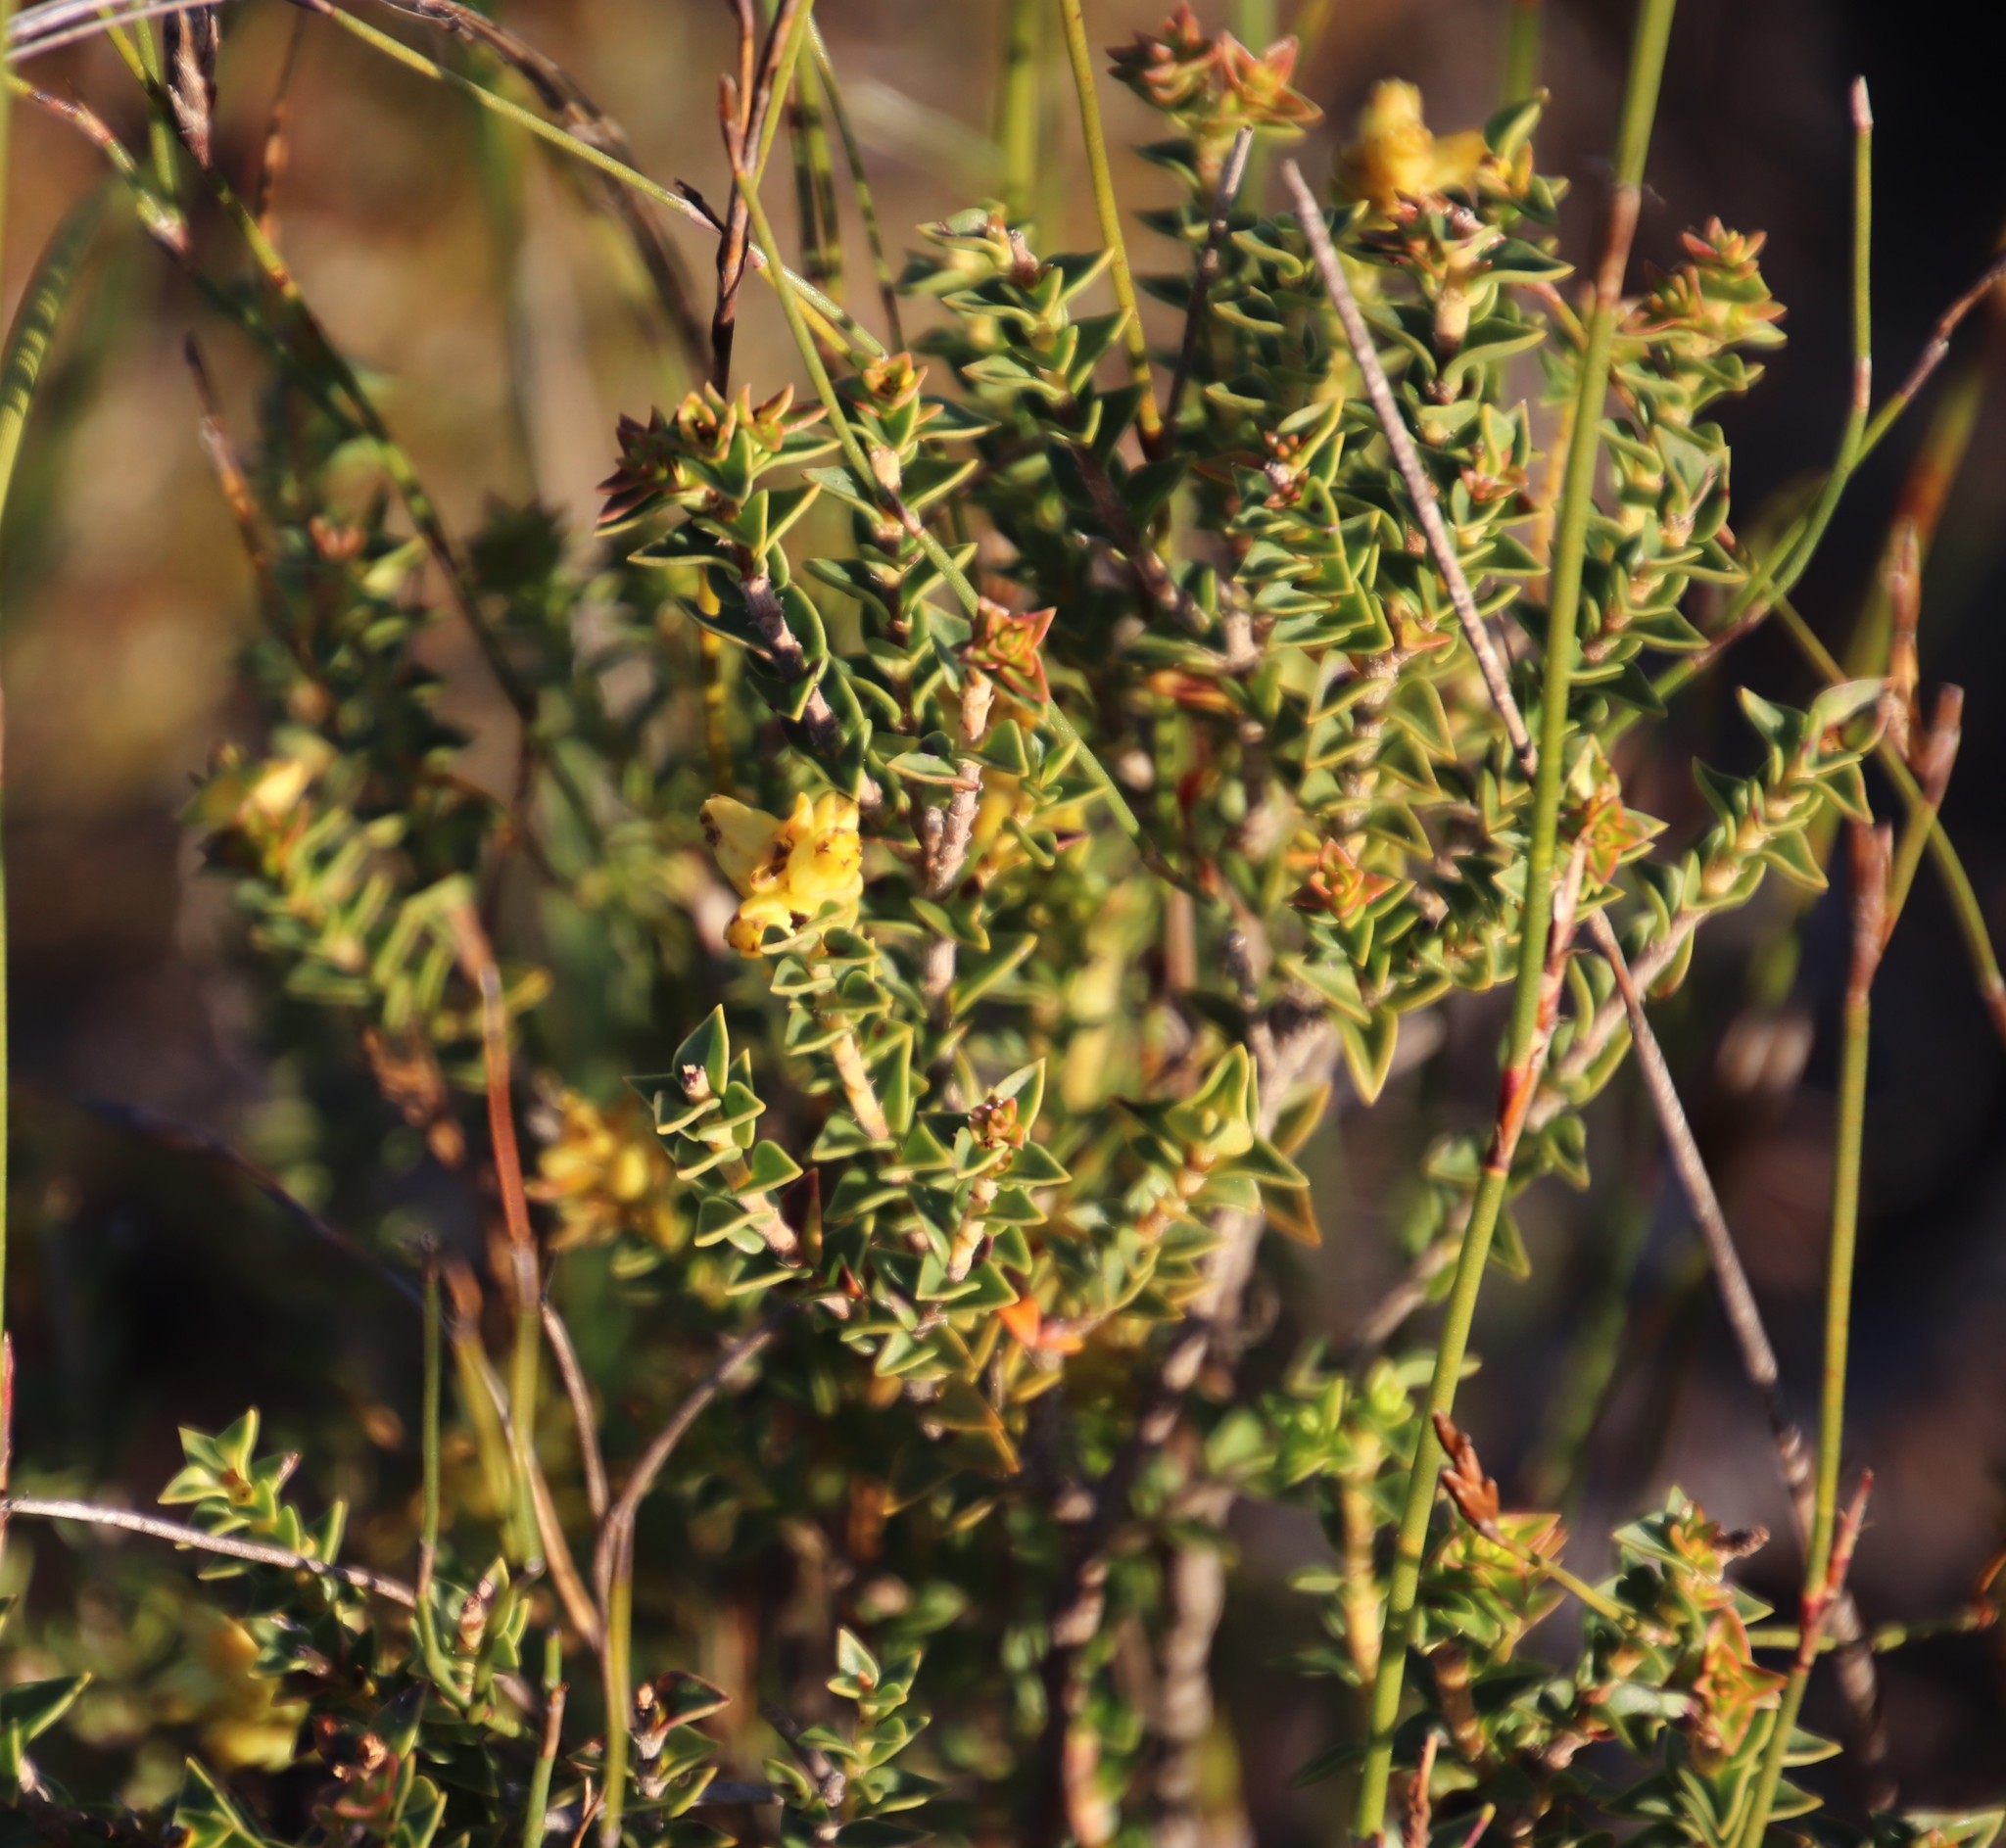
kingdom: Plantae
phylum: Tracheophyta
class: Magnoliopsida
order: Myrtales
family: Penaeaceae
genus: Penaea
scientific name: Penaea mucronata
